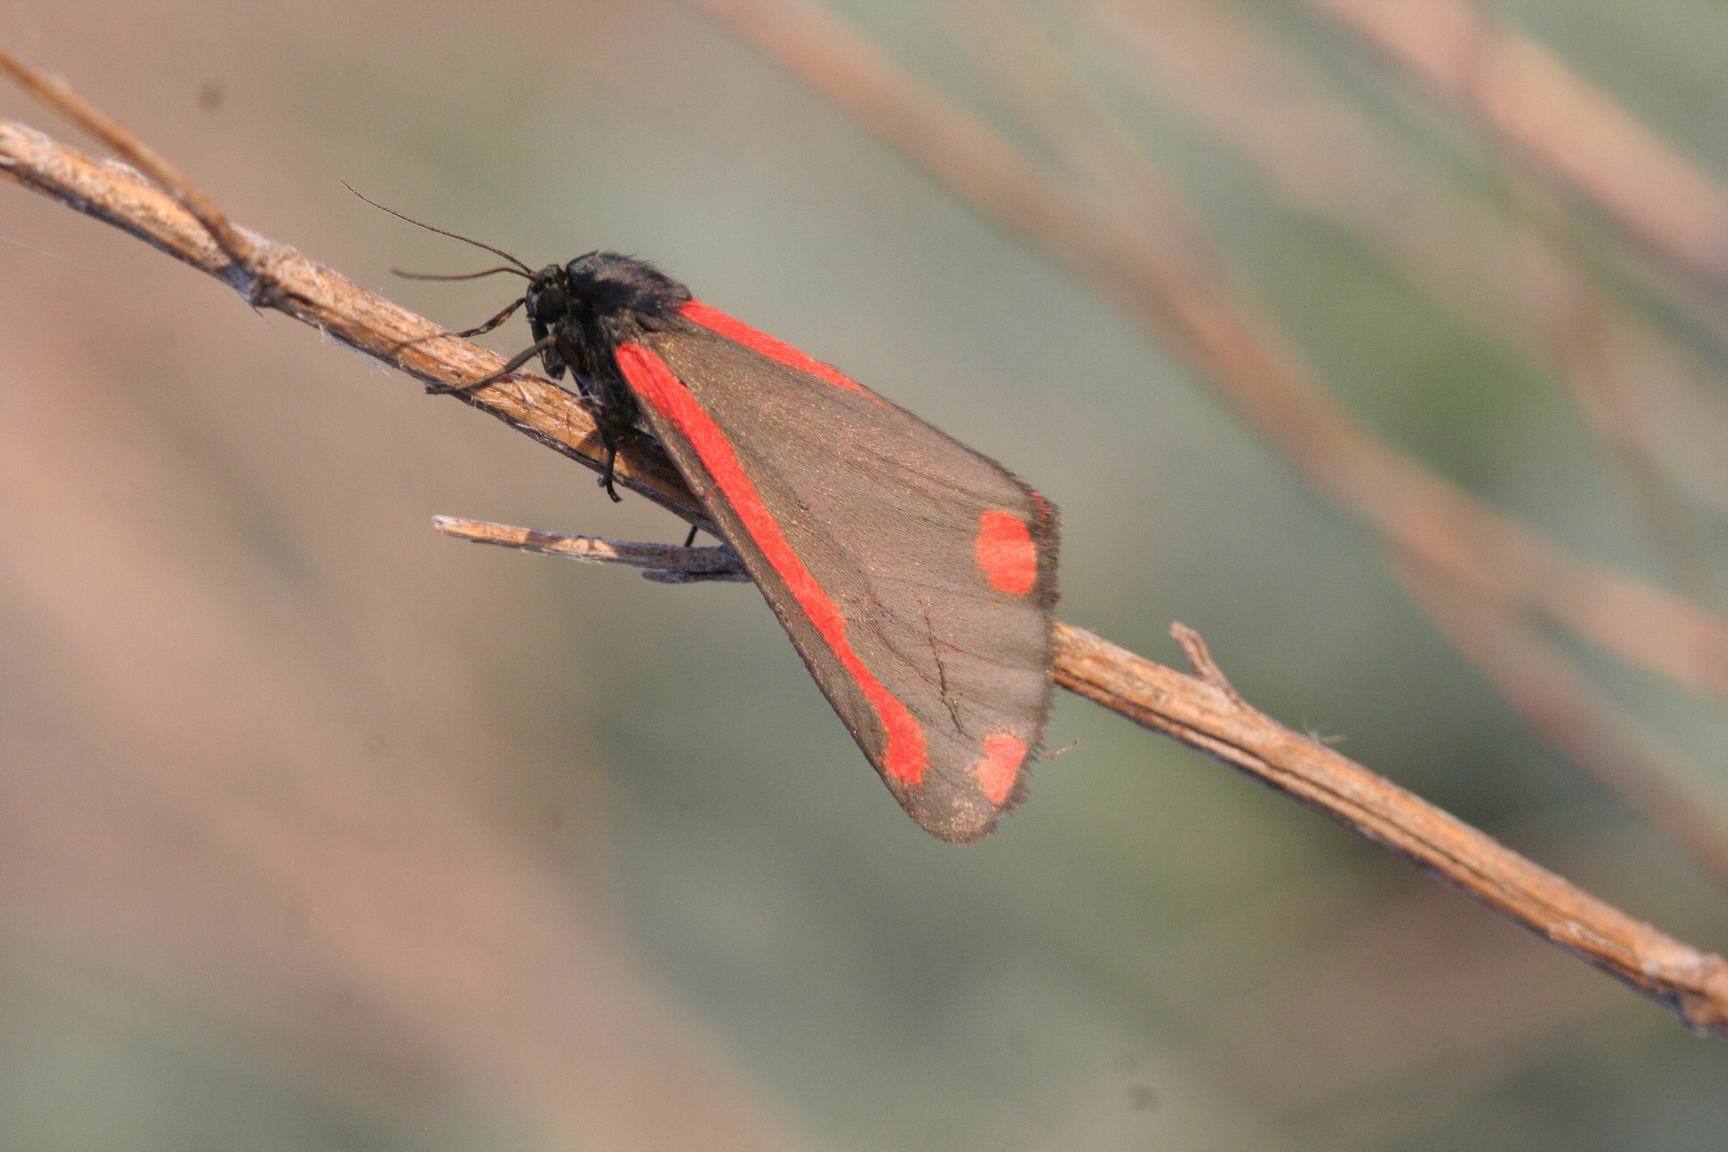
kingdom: Animalia
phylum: Arthropoda
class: Insecta
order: Lepidoptera
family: Erebidae
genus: Tyria
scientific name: Tyria jacobaeae
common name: Cinnabar
